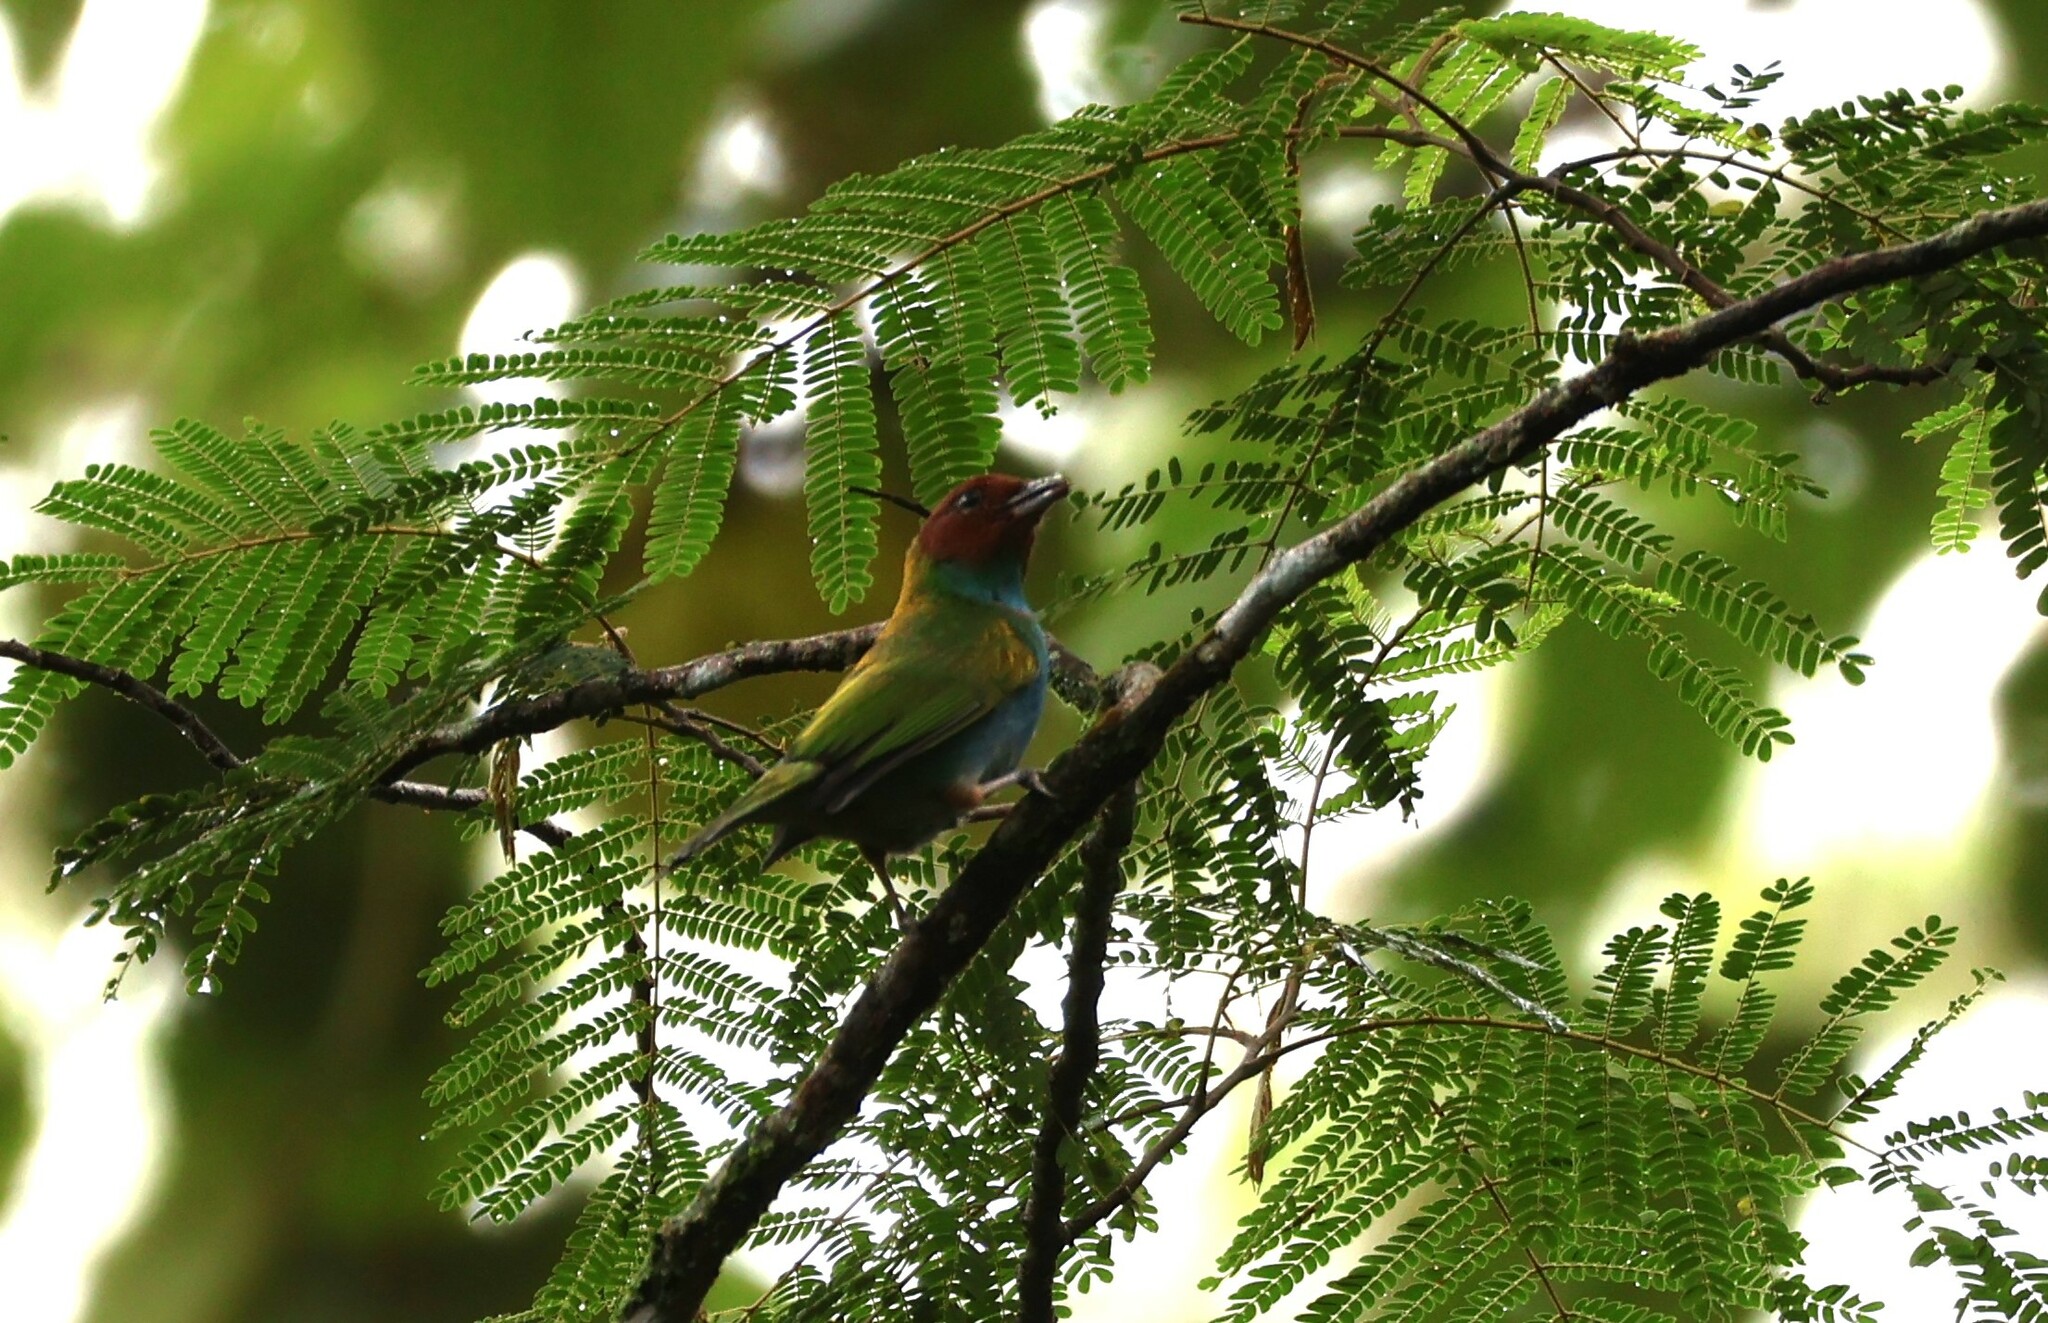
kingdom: Animalia
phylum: Chordata
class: Aves
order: Passeriformes
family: Thraupidae
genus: Tangara
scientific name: Tangara gyrola
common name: Bay-headed tanager
